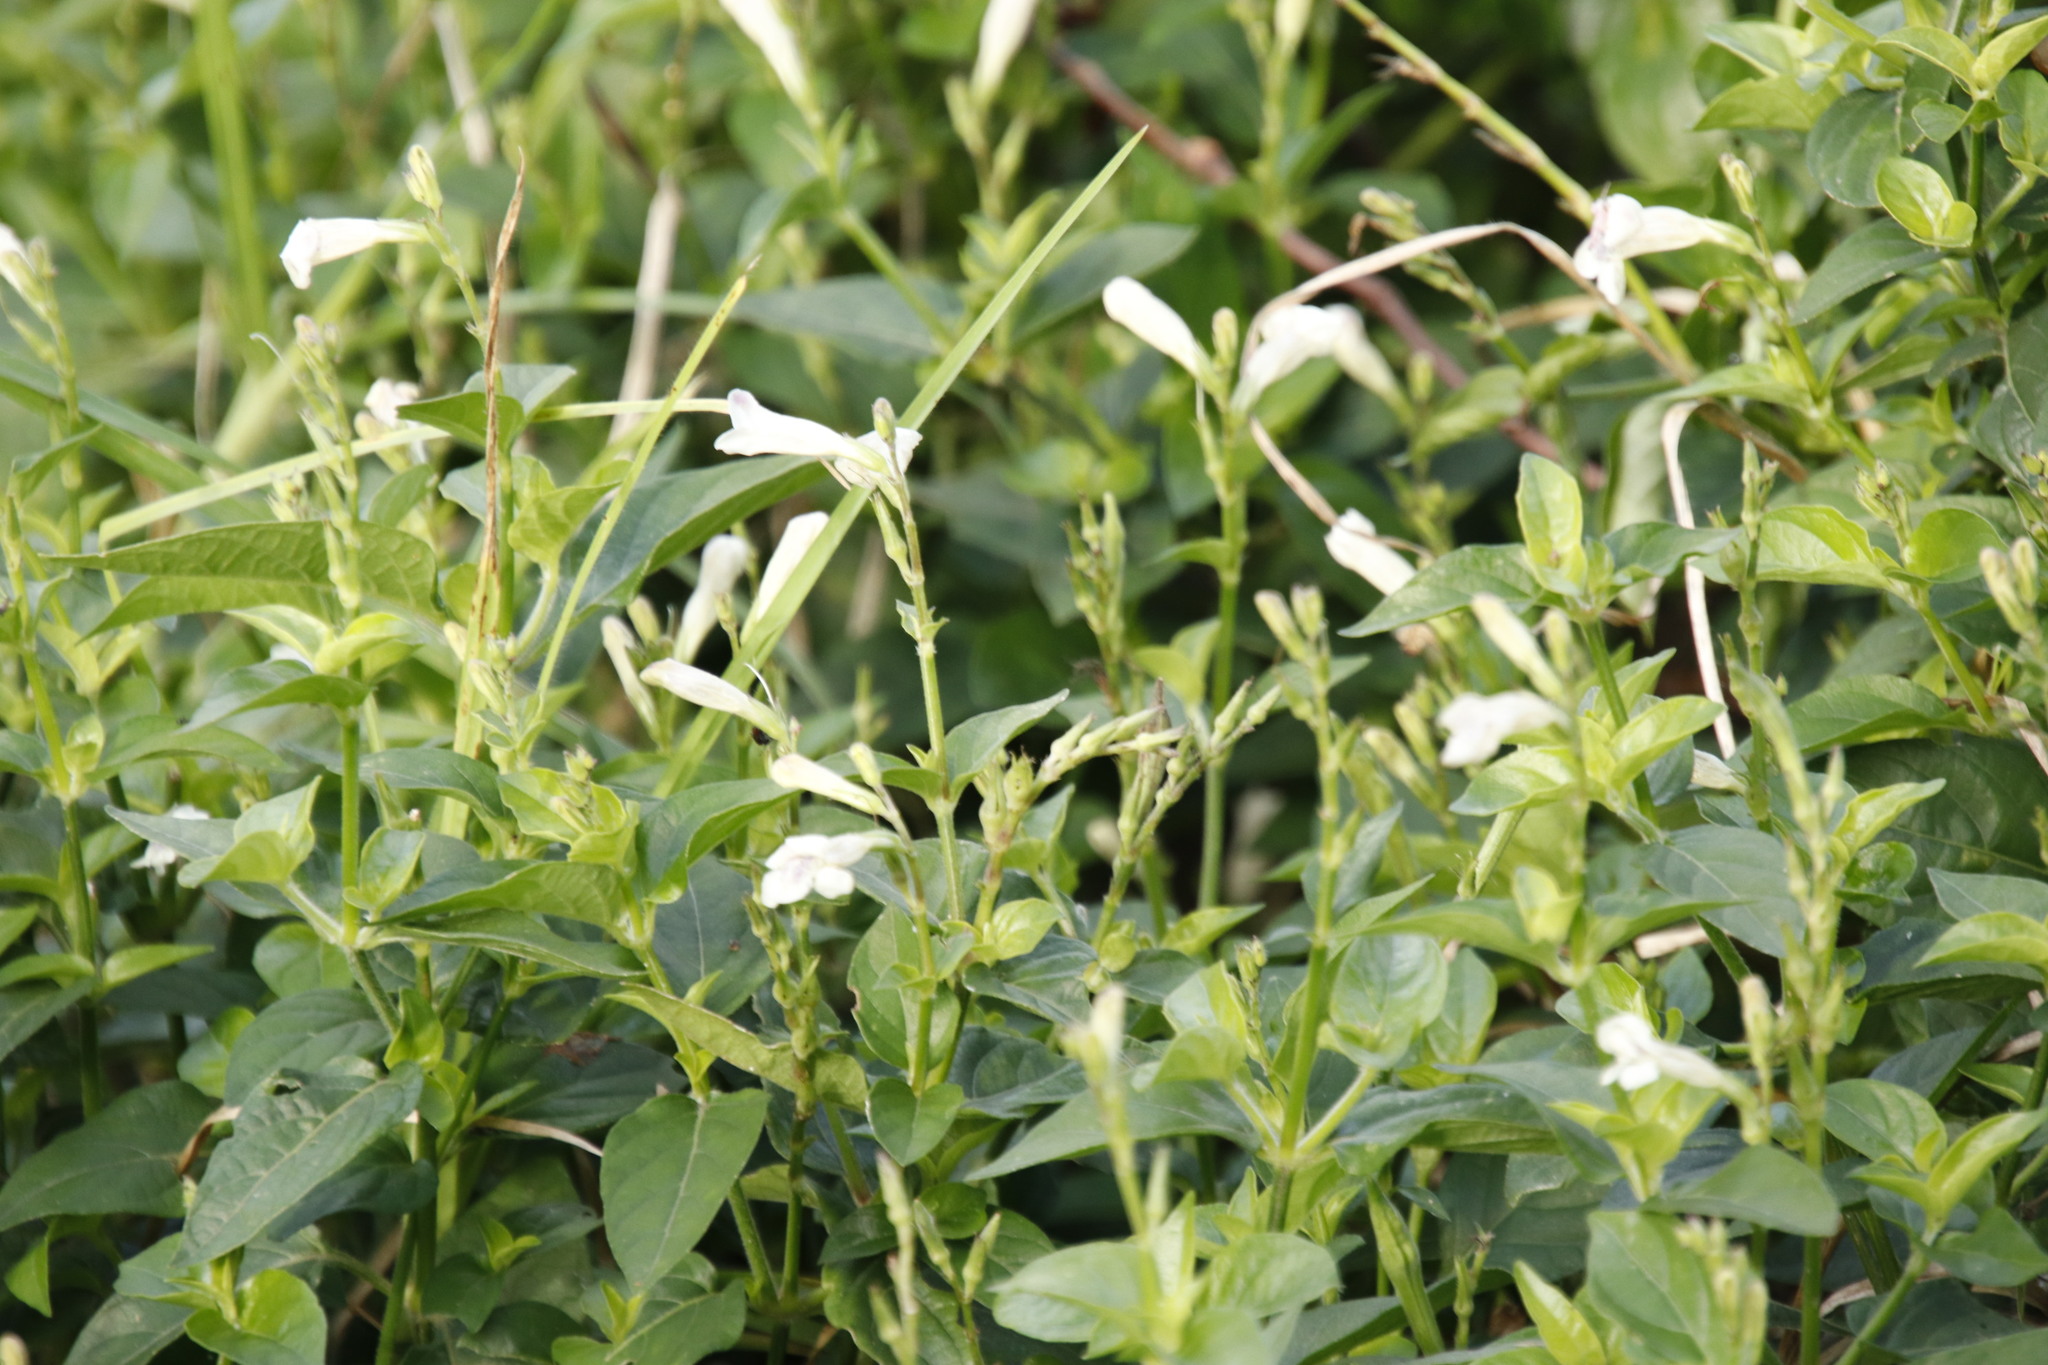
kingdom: Plantae
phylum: Tracheophyta
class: Magnoliopsida
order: Lamiales
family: Acanthaceae
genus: Asystasia
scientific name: Asystasia intrusa
